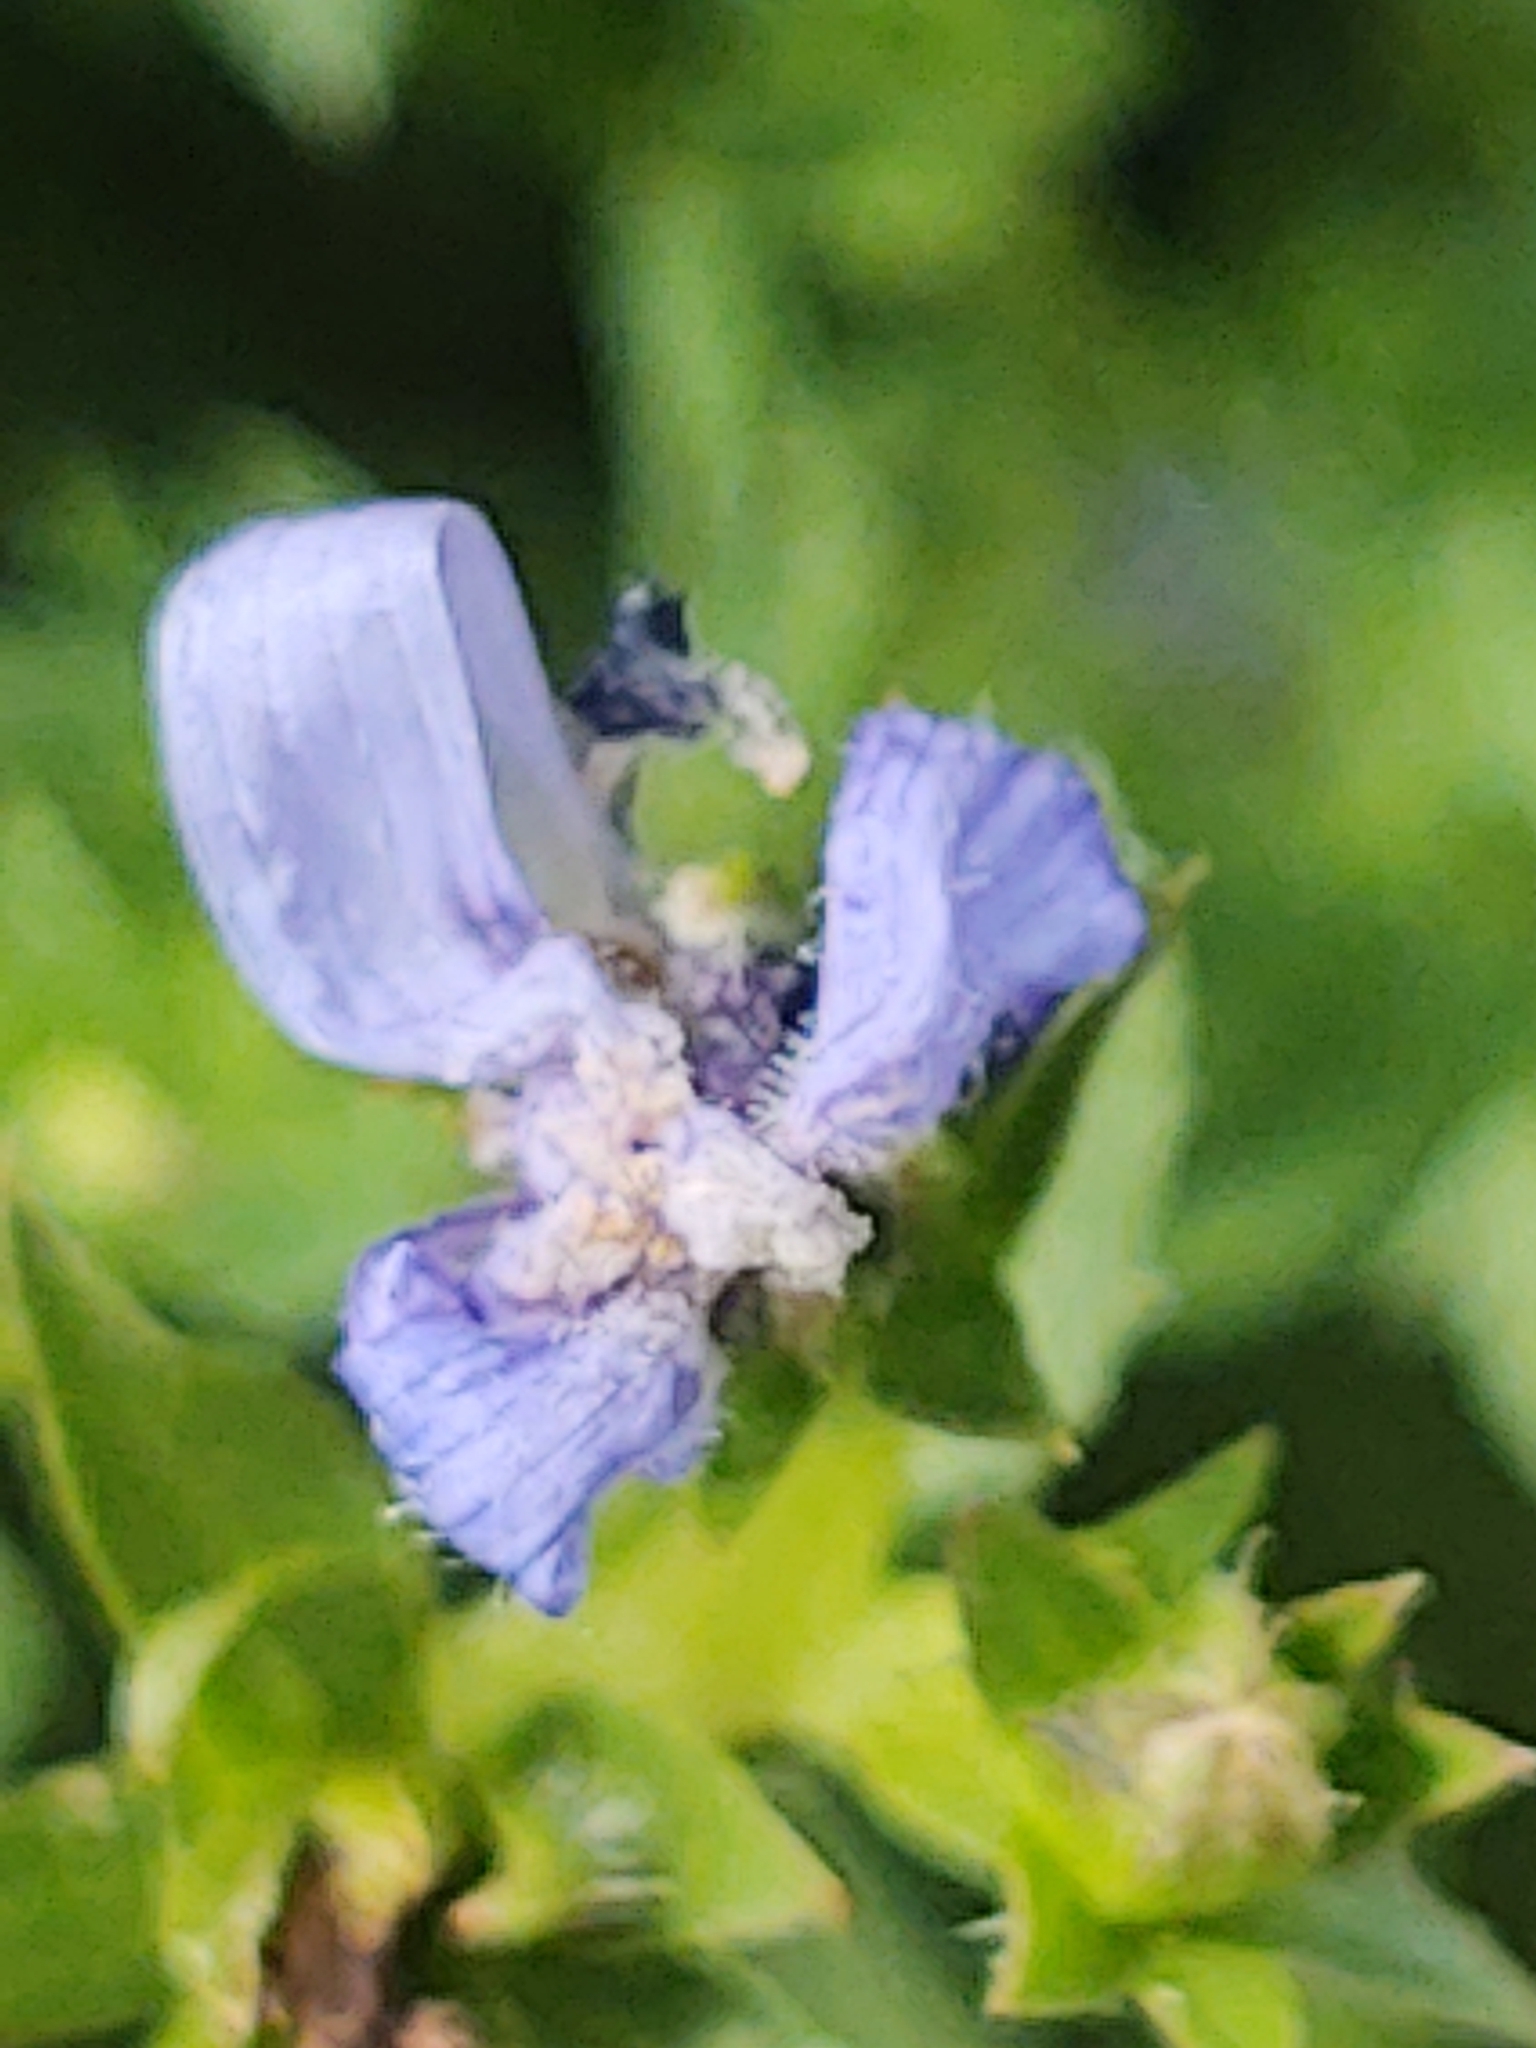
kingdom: Plantae
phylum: Tracheophyta
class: Magnoliopsida
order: Asterales
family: Asteraceae
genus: Cichorium
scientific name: Cichorium intybus
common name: Chicory
